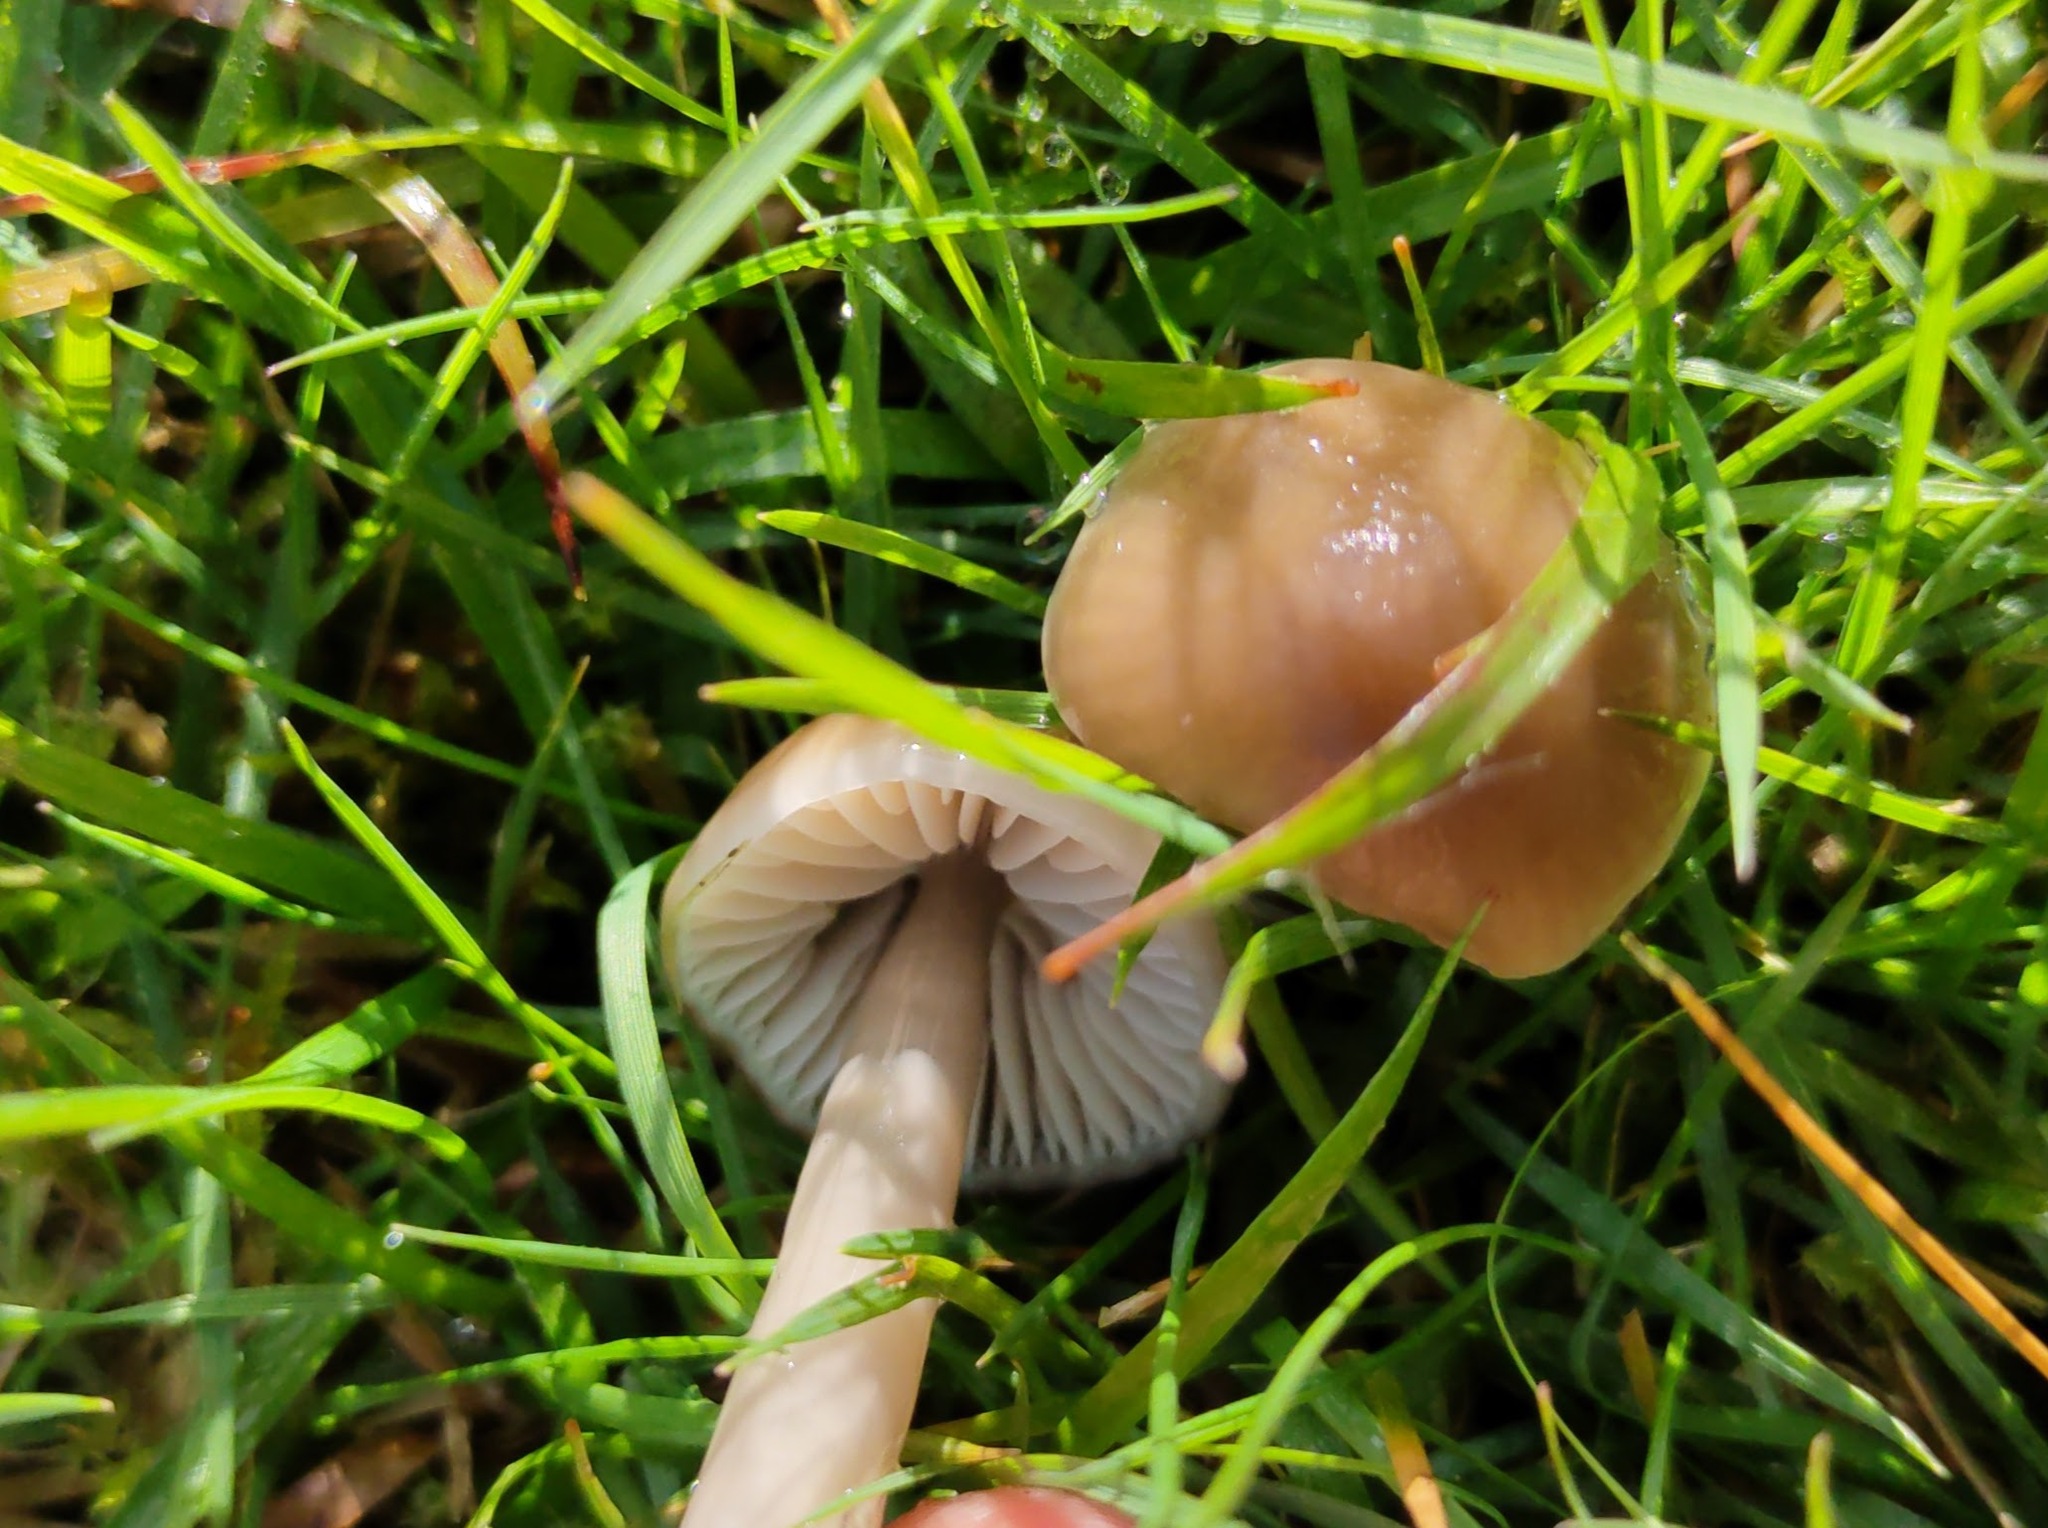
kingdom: Fungi
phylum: Basidiomycota
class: Agaricomycetes
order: Agaricales
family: Hygrophoraceae
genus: Gliophorus
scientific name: Gliophorus irrigatus
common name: Slimy waxcap
